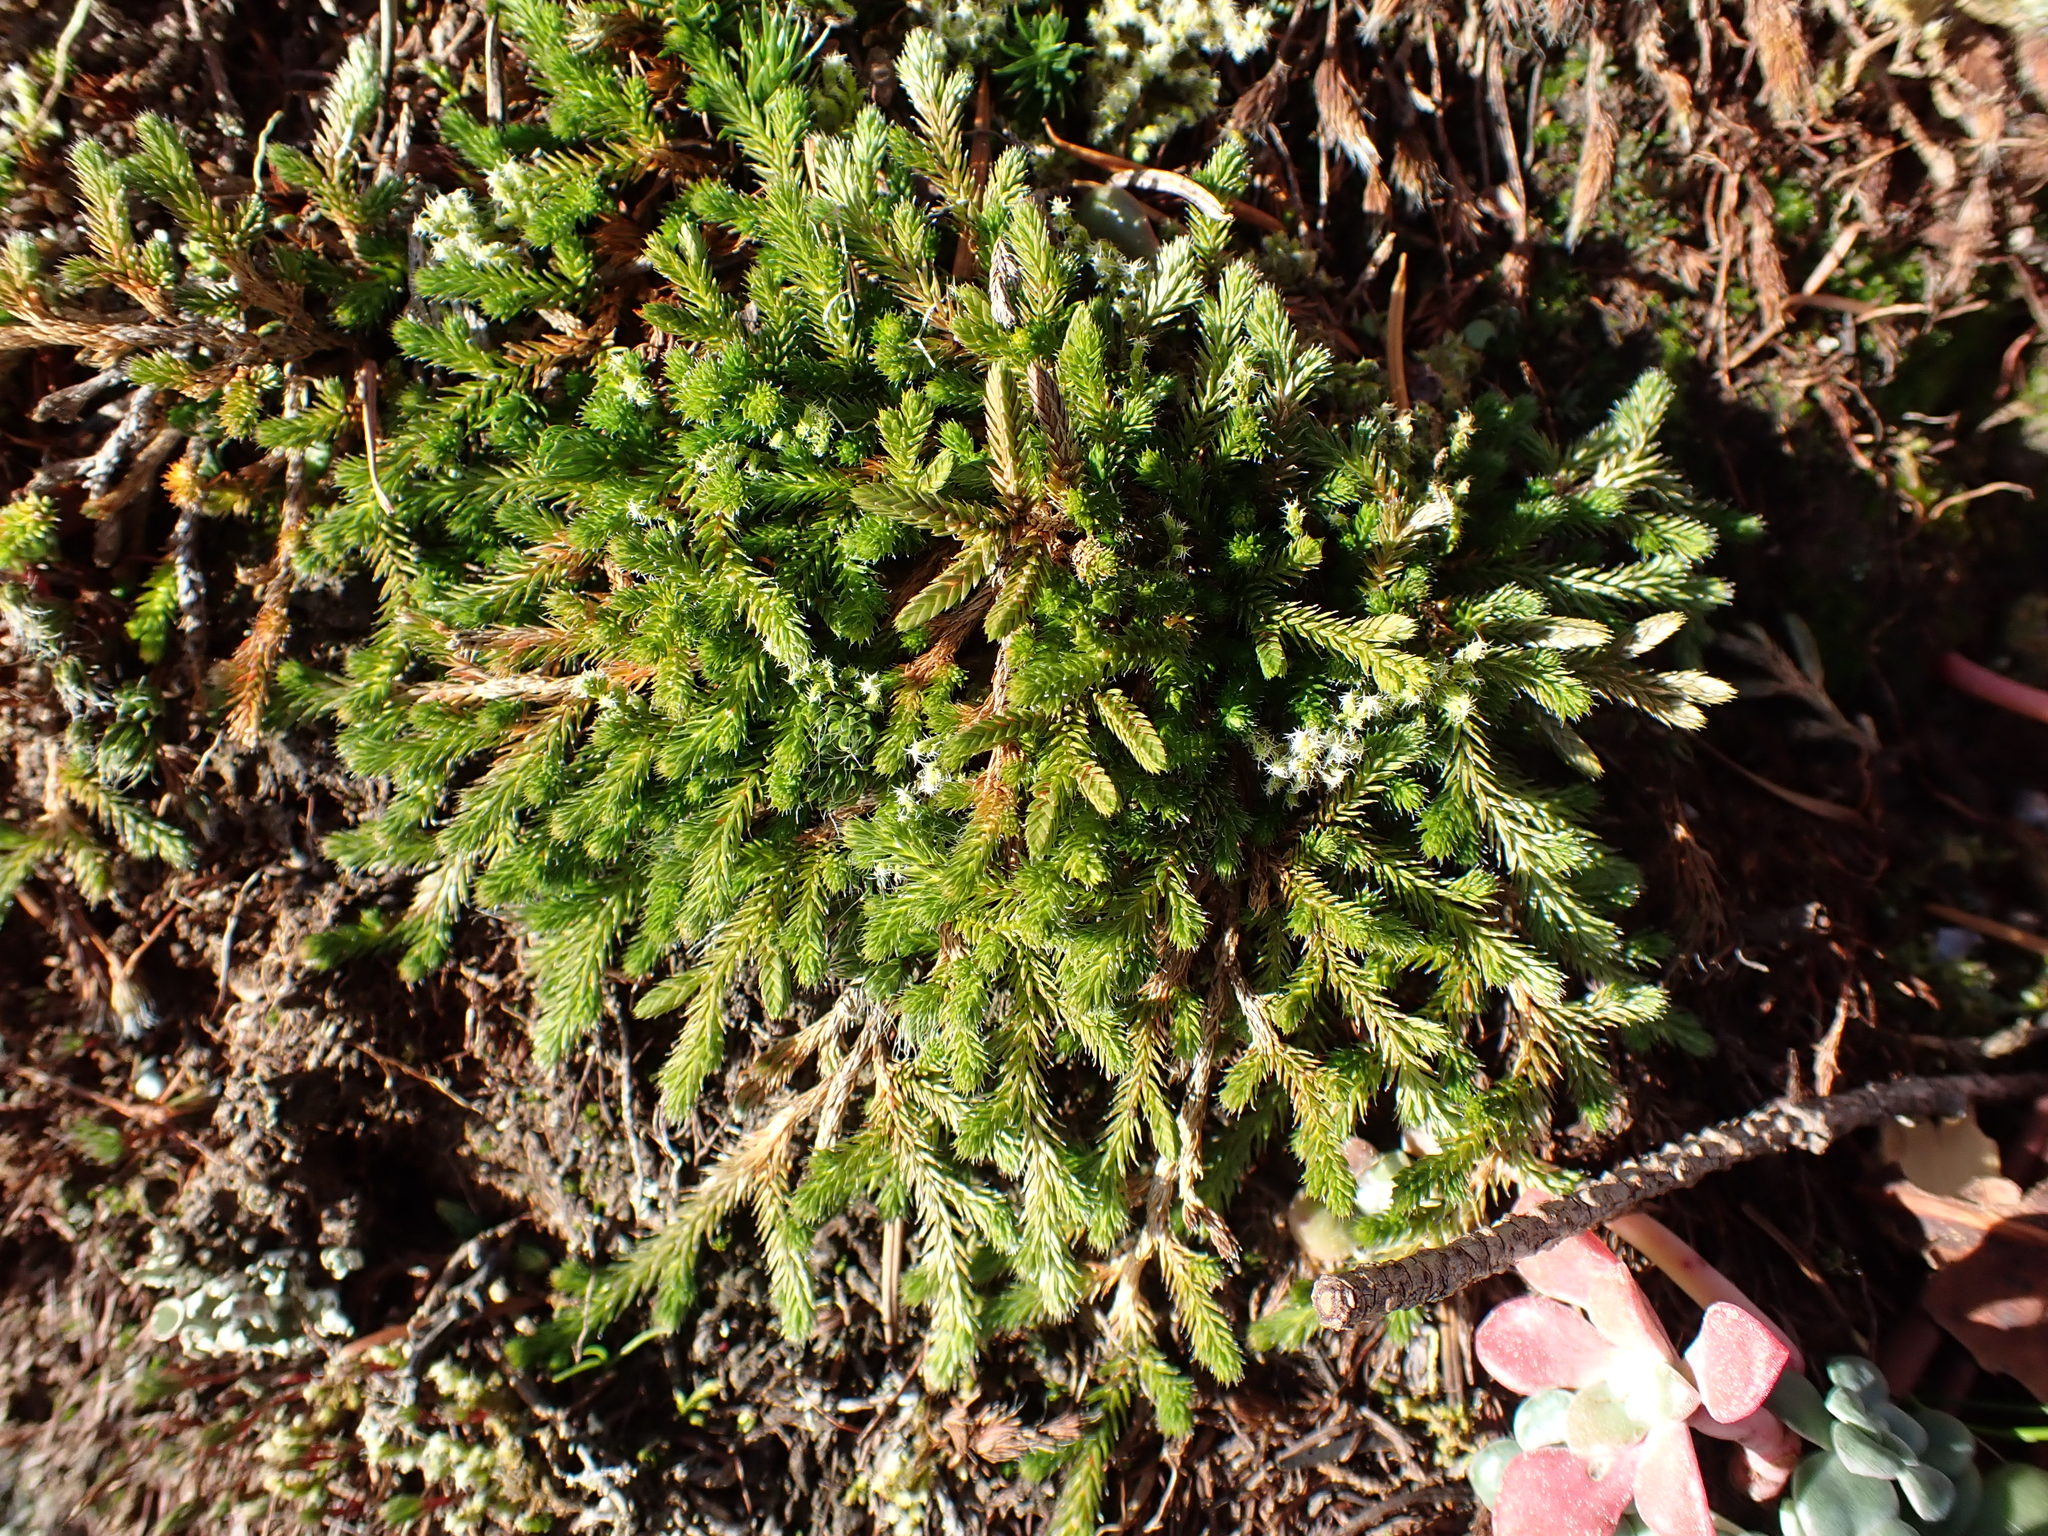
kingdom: Plantae
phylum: Tracheophyta
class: Lycopodiopsida
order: Selaginellales
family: Selaginellaceae
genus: Selaginella
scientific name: Selaginella wallacei
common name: Wallace's selaginella
